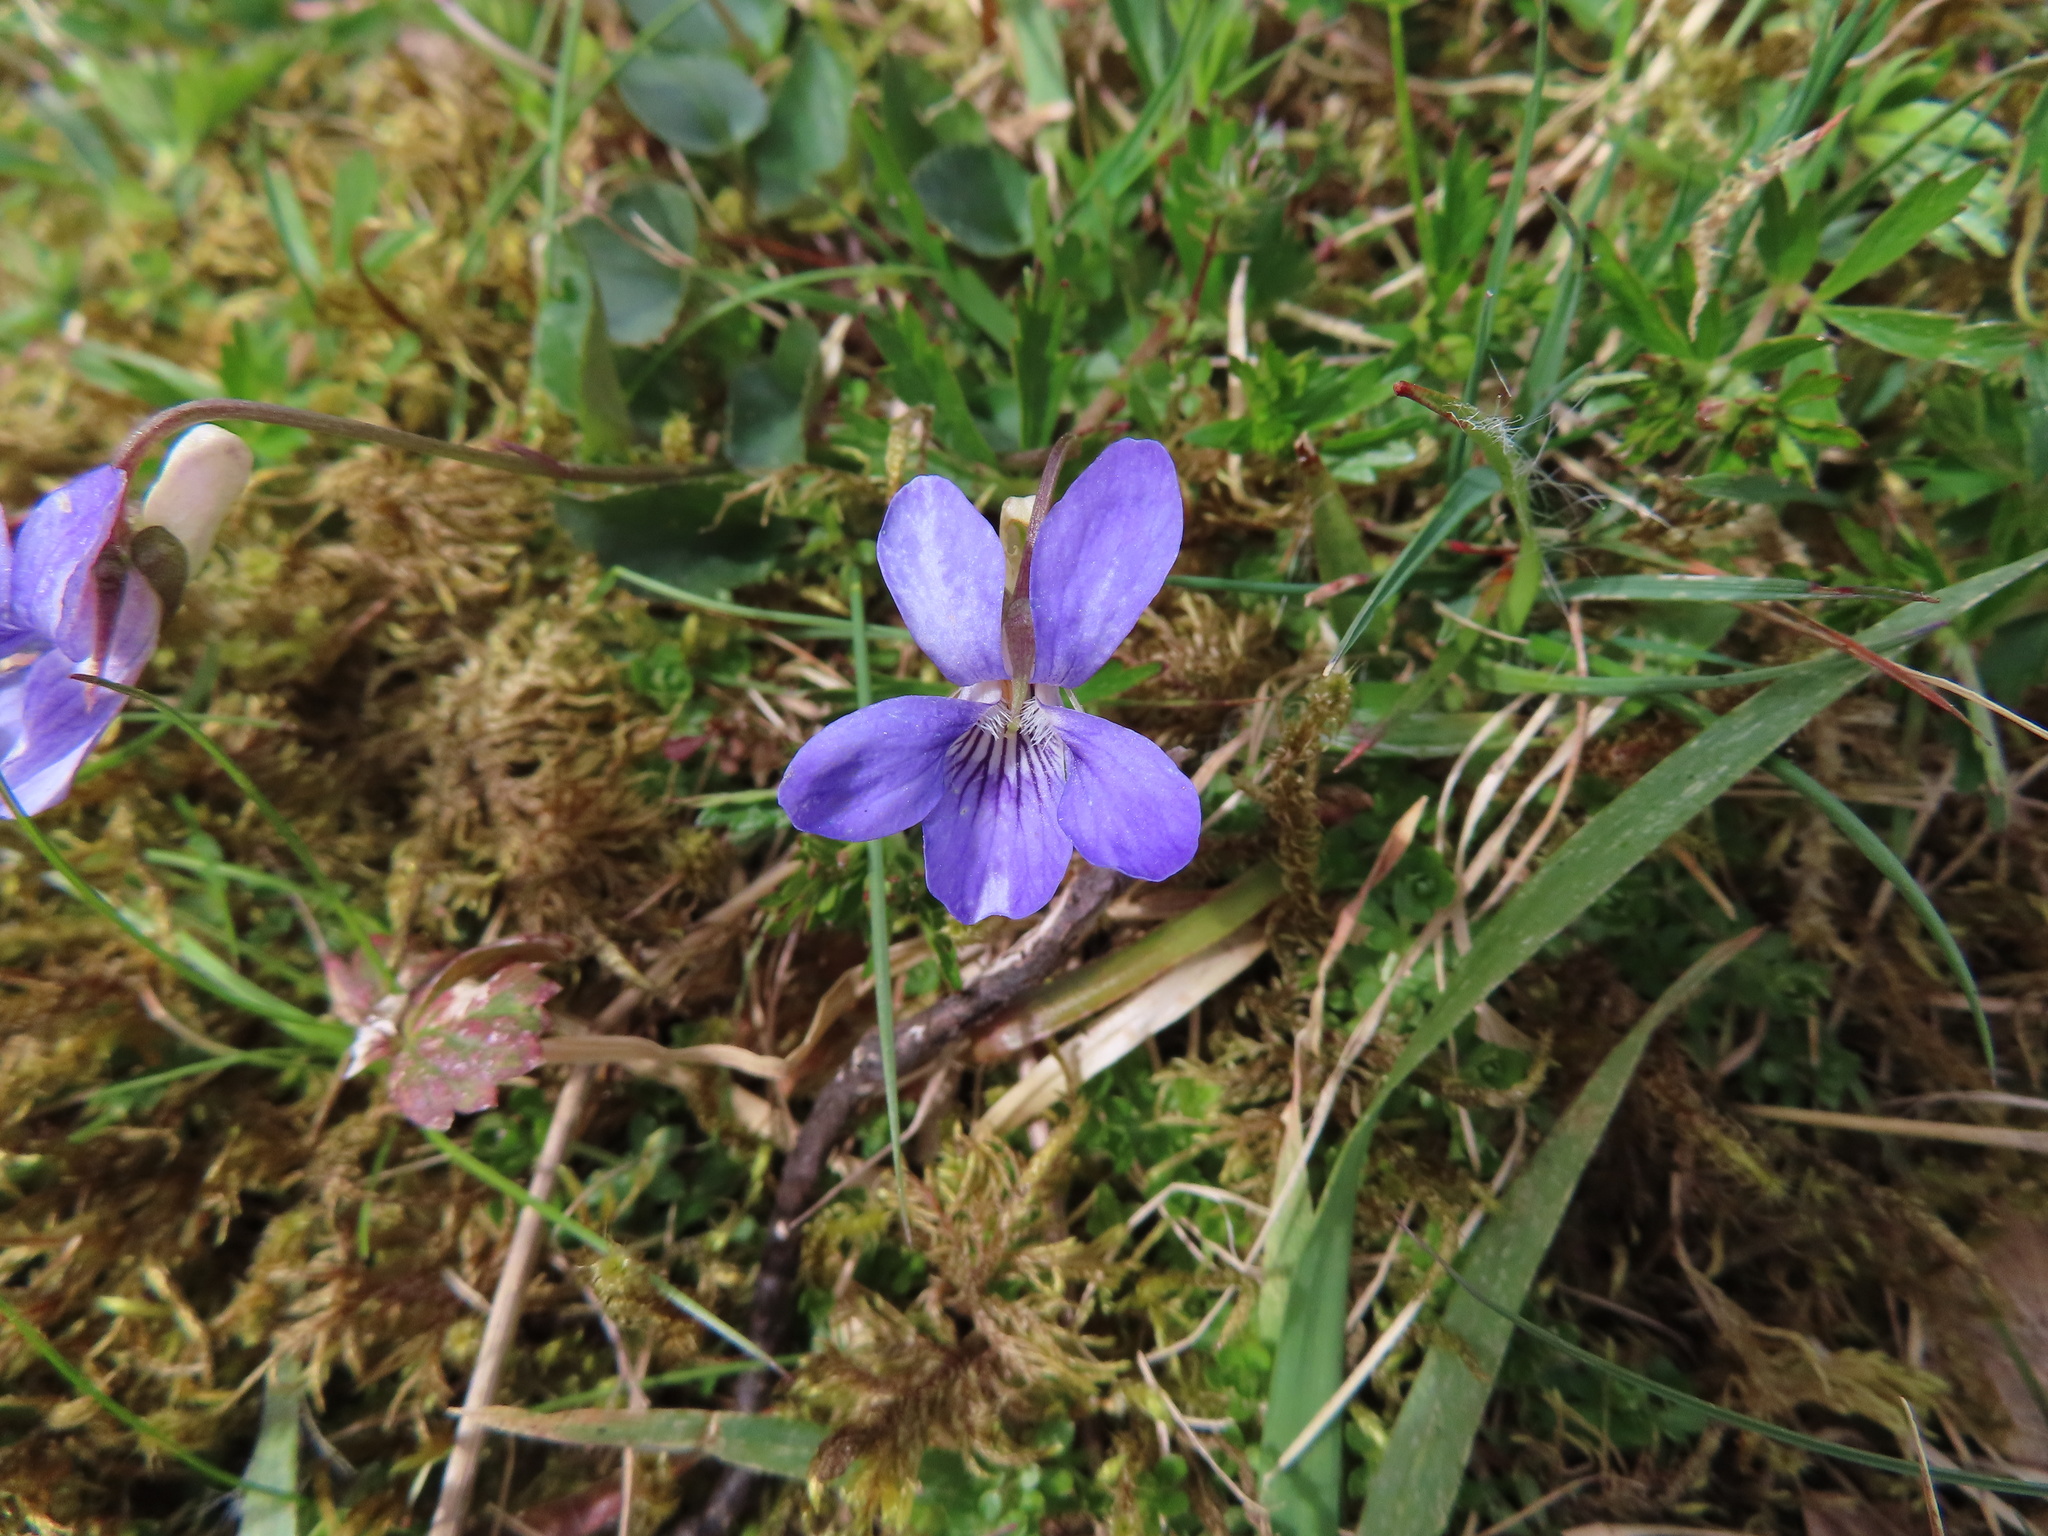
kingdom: Plantae
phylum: Tracheophyta
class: Magnoliopsida
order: Malpighiales
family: Violaceae
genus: Viola
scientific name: Viola riviniana
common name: Common dog-violet
